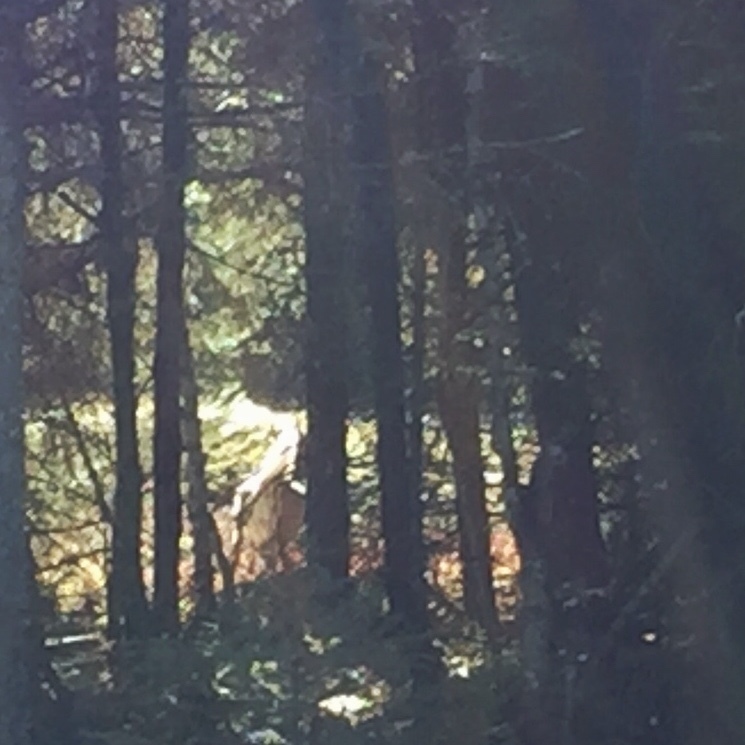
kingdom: Animalia
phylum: Chordata
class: Mammalia
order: Artiodactyla
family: Cervidae
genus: Odocoileus
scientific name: Odocoileus virginianus
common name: White-tailed deer
